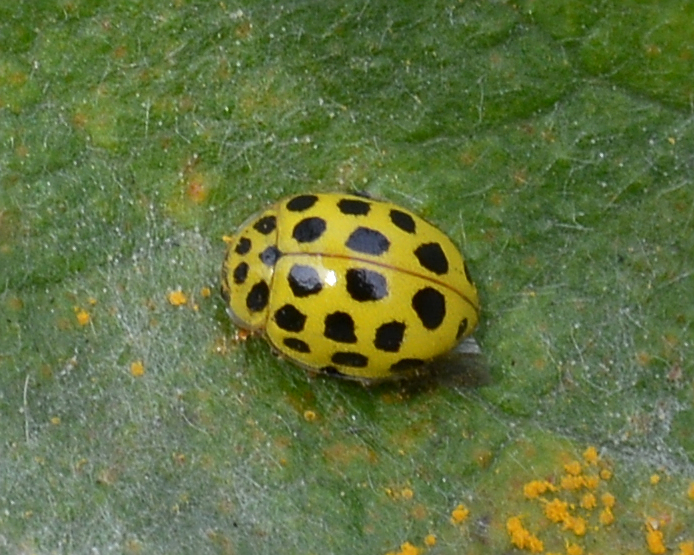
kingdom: Animalia
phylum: Arthropoda
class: Insecta
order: Coleoptera
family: Coccinellidae
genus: Psyllobora
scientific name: Psyllobora vigintiduopunctata
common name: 22-spot ladybird
